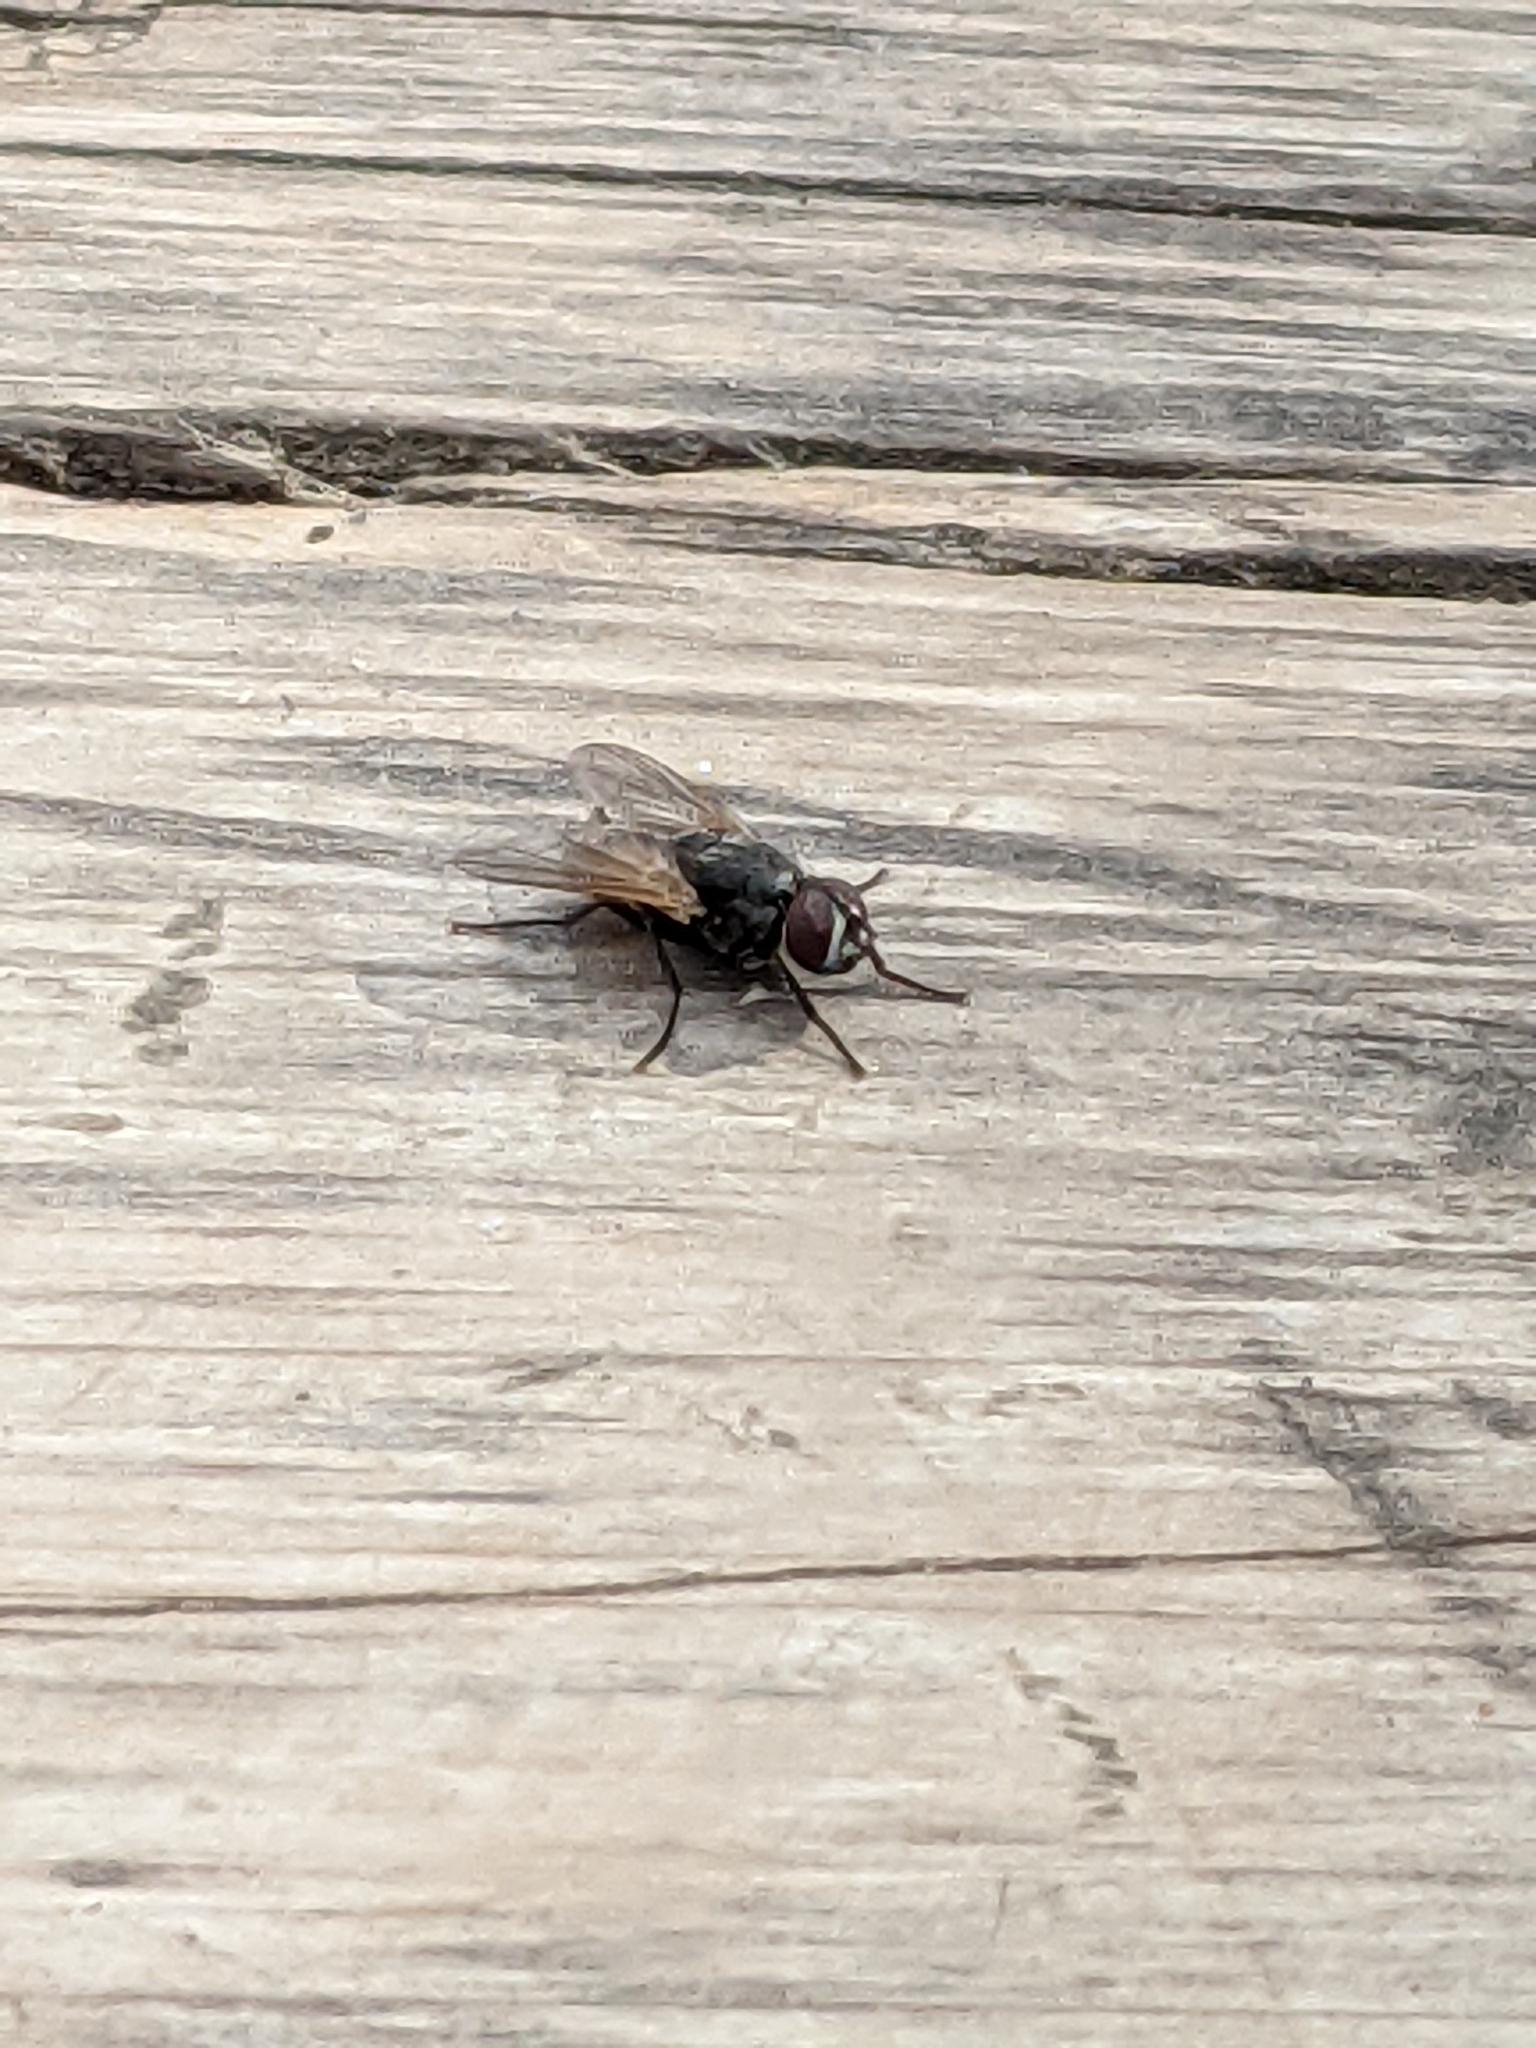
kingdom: Animalia
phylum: Arthropoda
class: Insecta
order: Diptera
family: Muscidae
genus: Musca
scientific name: Musca domestica
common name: House fly
